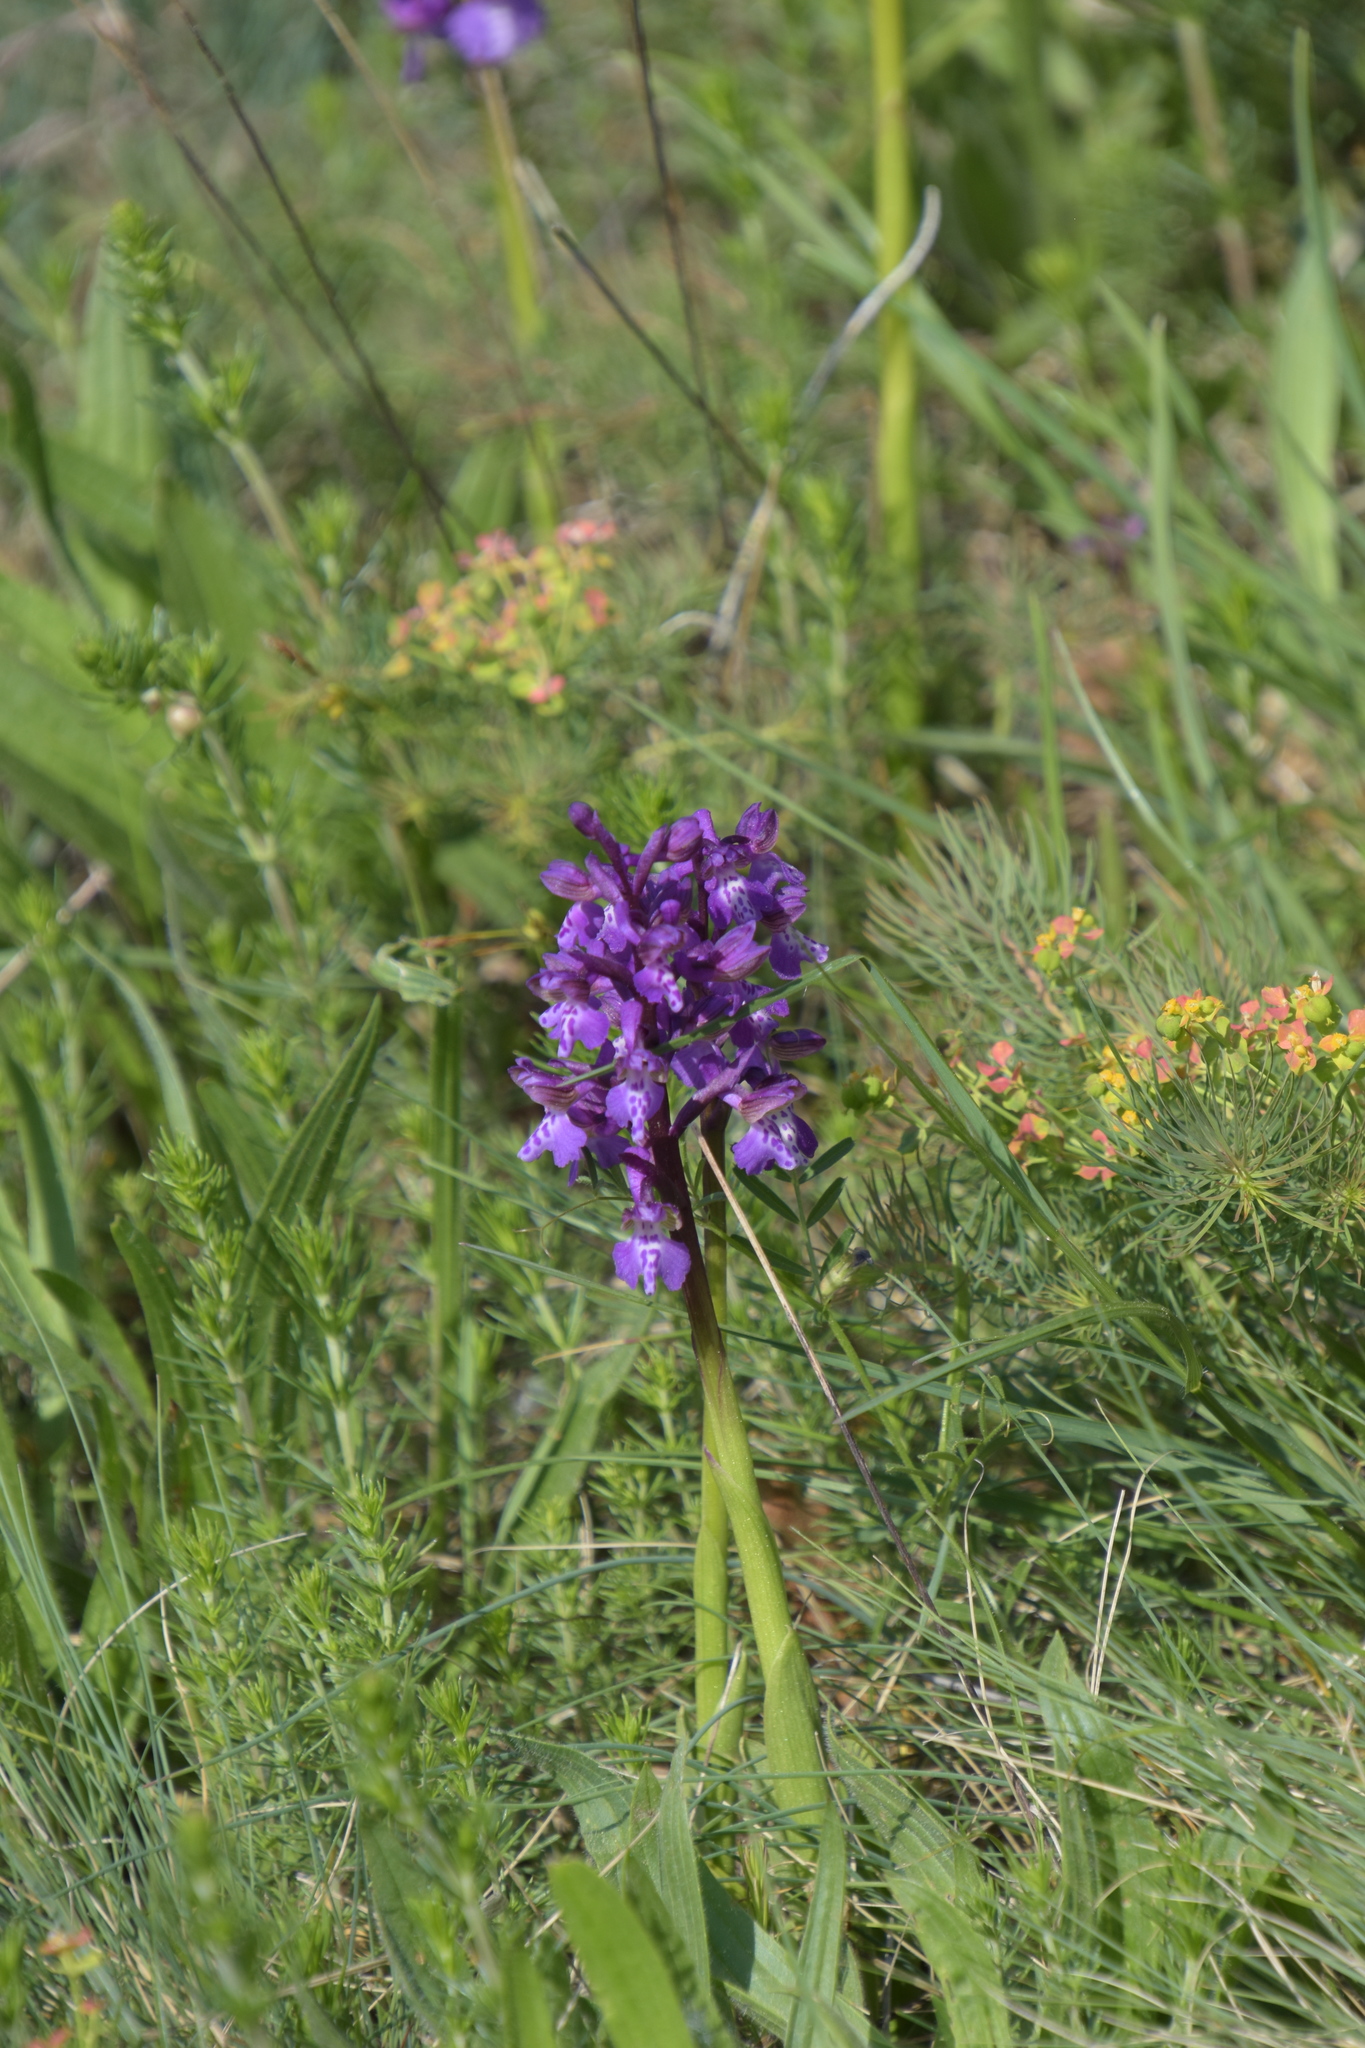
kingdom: Plantae
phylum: Tracheophyta
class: Liliopsida
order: Asparagales
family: Orchidaceae
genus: Anacamptis
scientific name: Anacamptis morio
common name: Green-winged orchid
